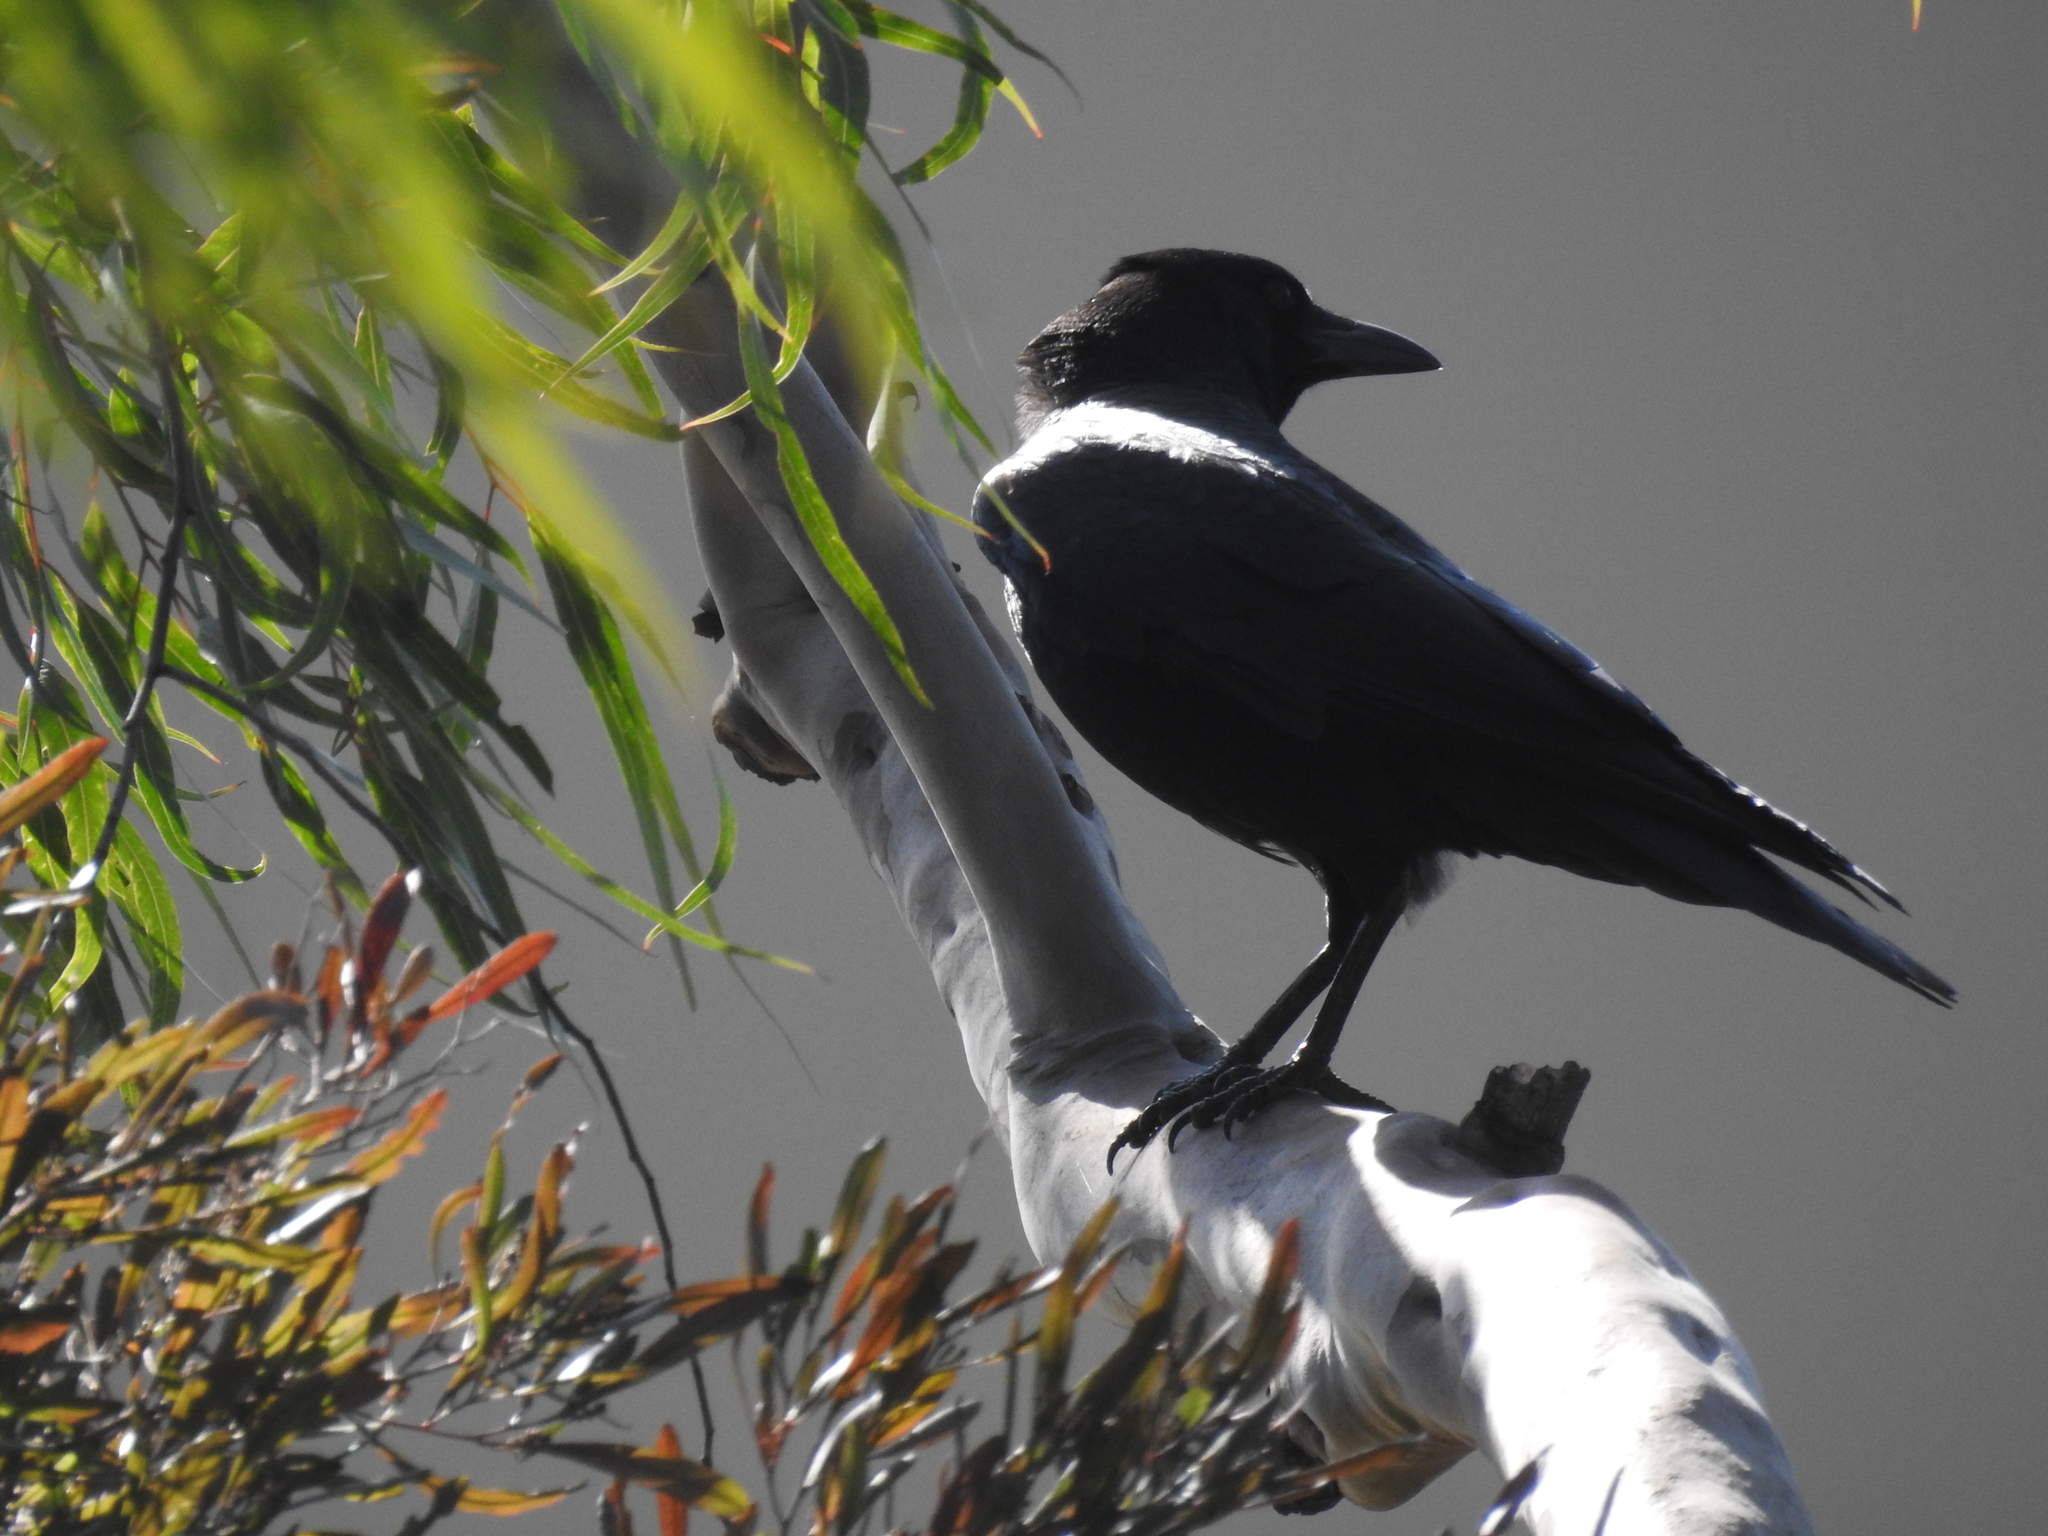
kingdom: Animalia
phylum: Chordata
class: Aves
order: Passeriformes
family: Corvidae
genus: Corvus
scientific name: Corvus brachyrhynchos
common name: American crow
